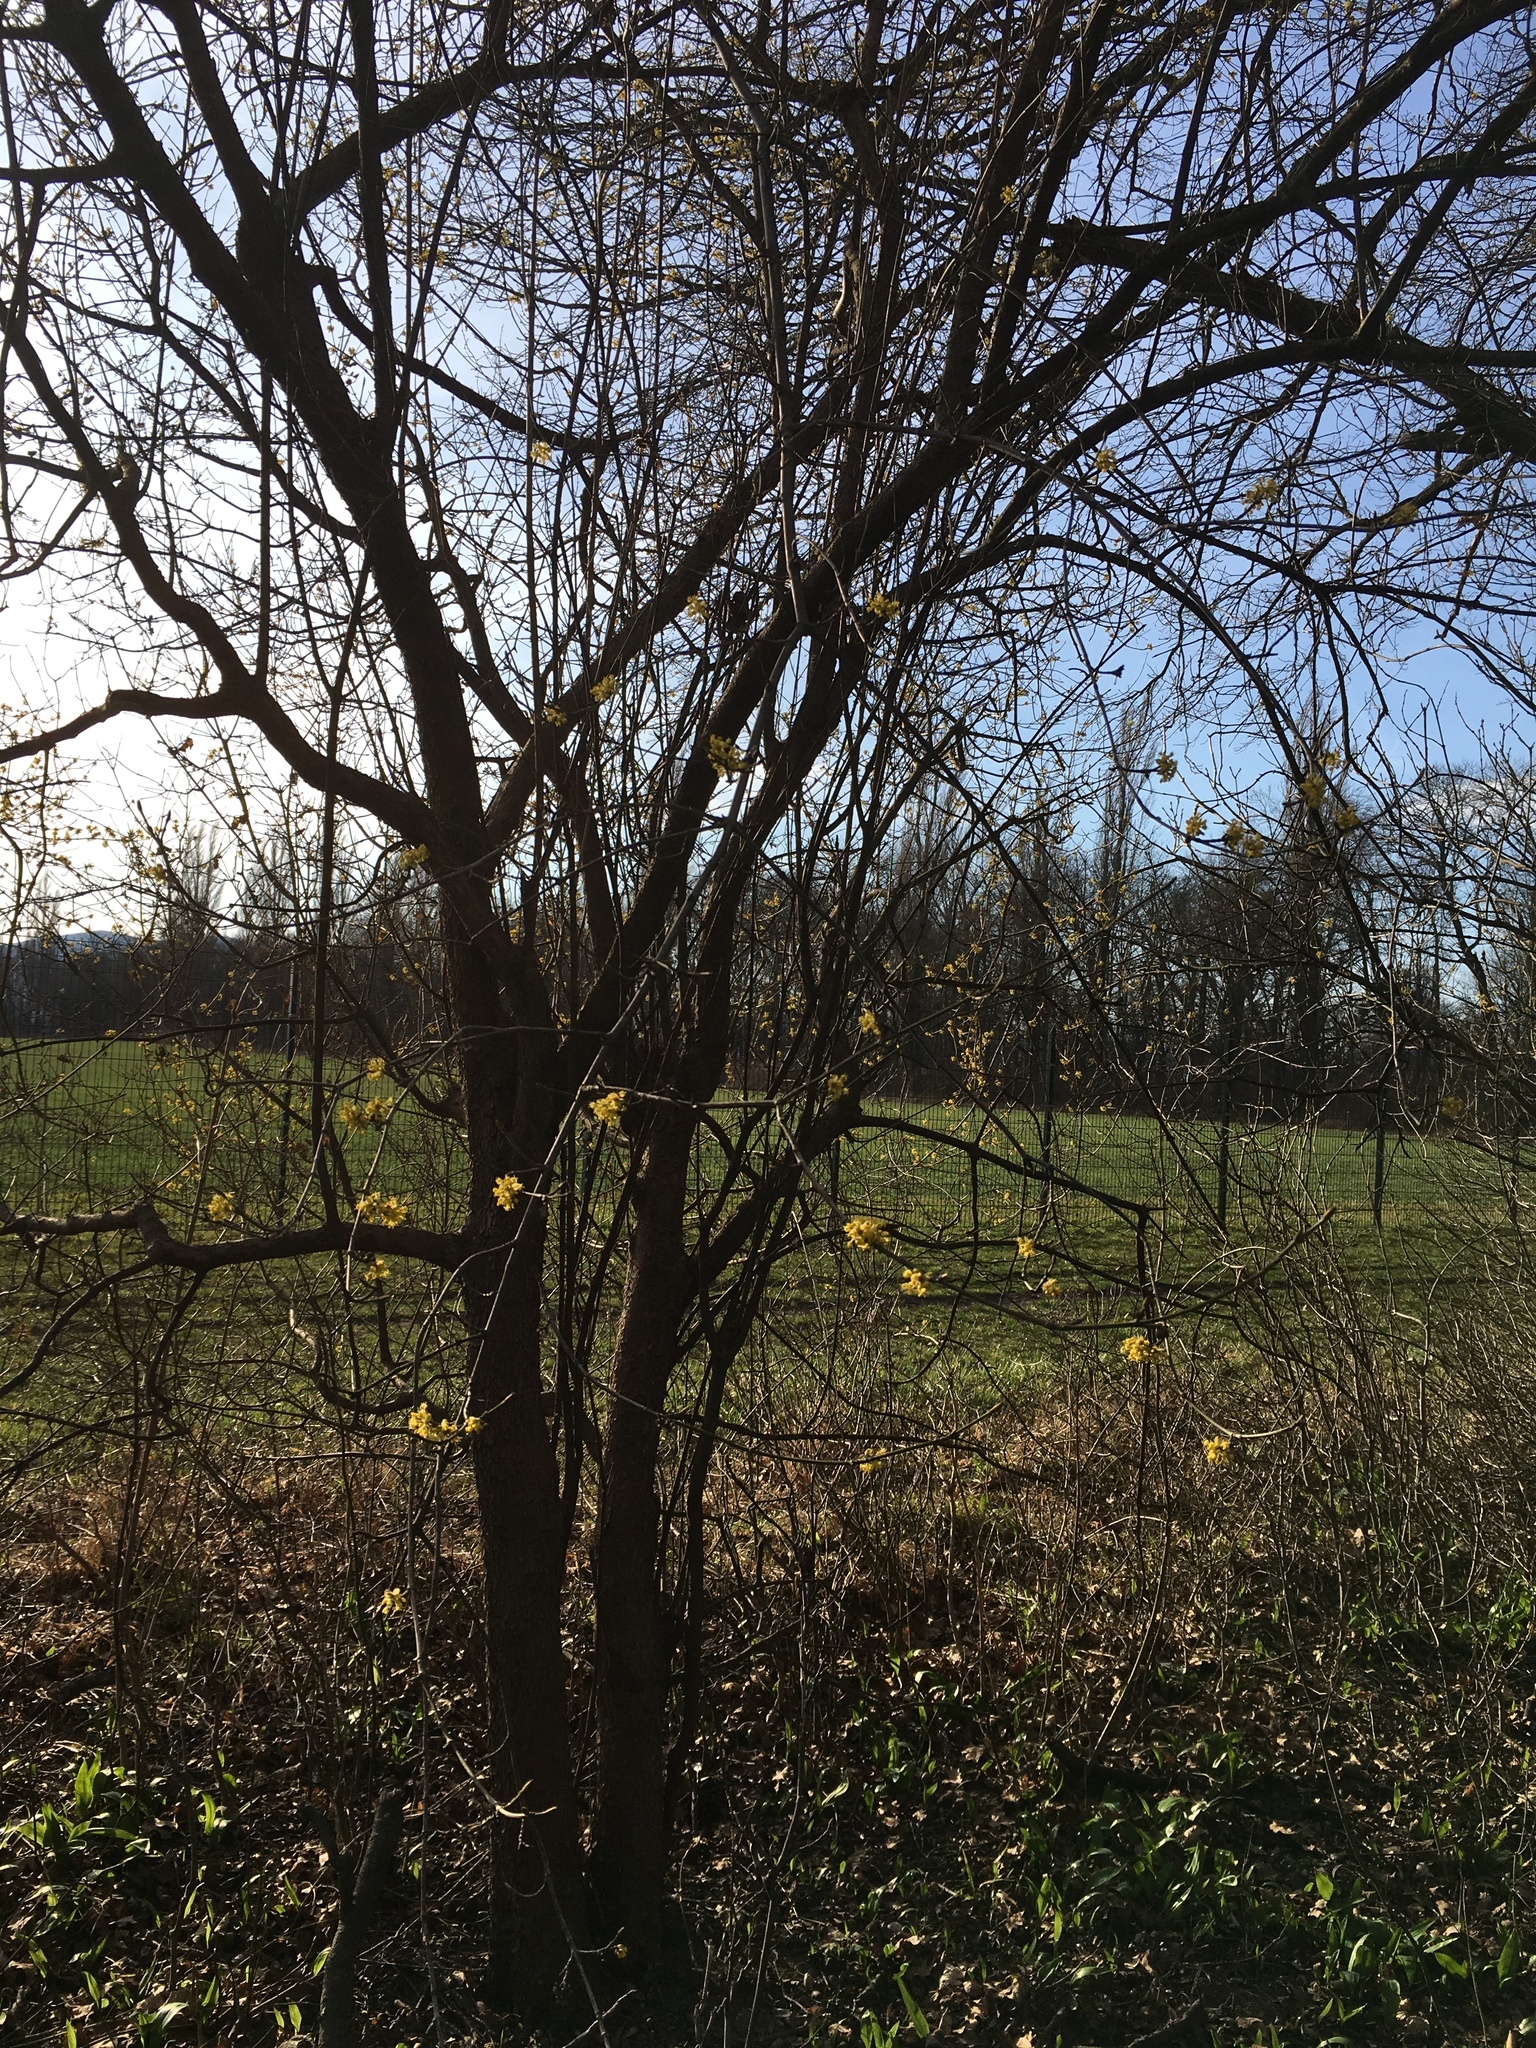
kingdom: Plantae
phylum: Tracheophyta
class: Magnoliopsida
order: Cornales
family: Cornaceae
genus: Cornus
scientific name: Cornus mas
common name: Cornelian-cherry
